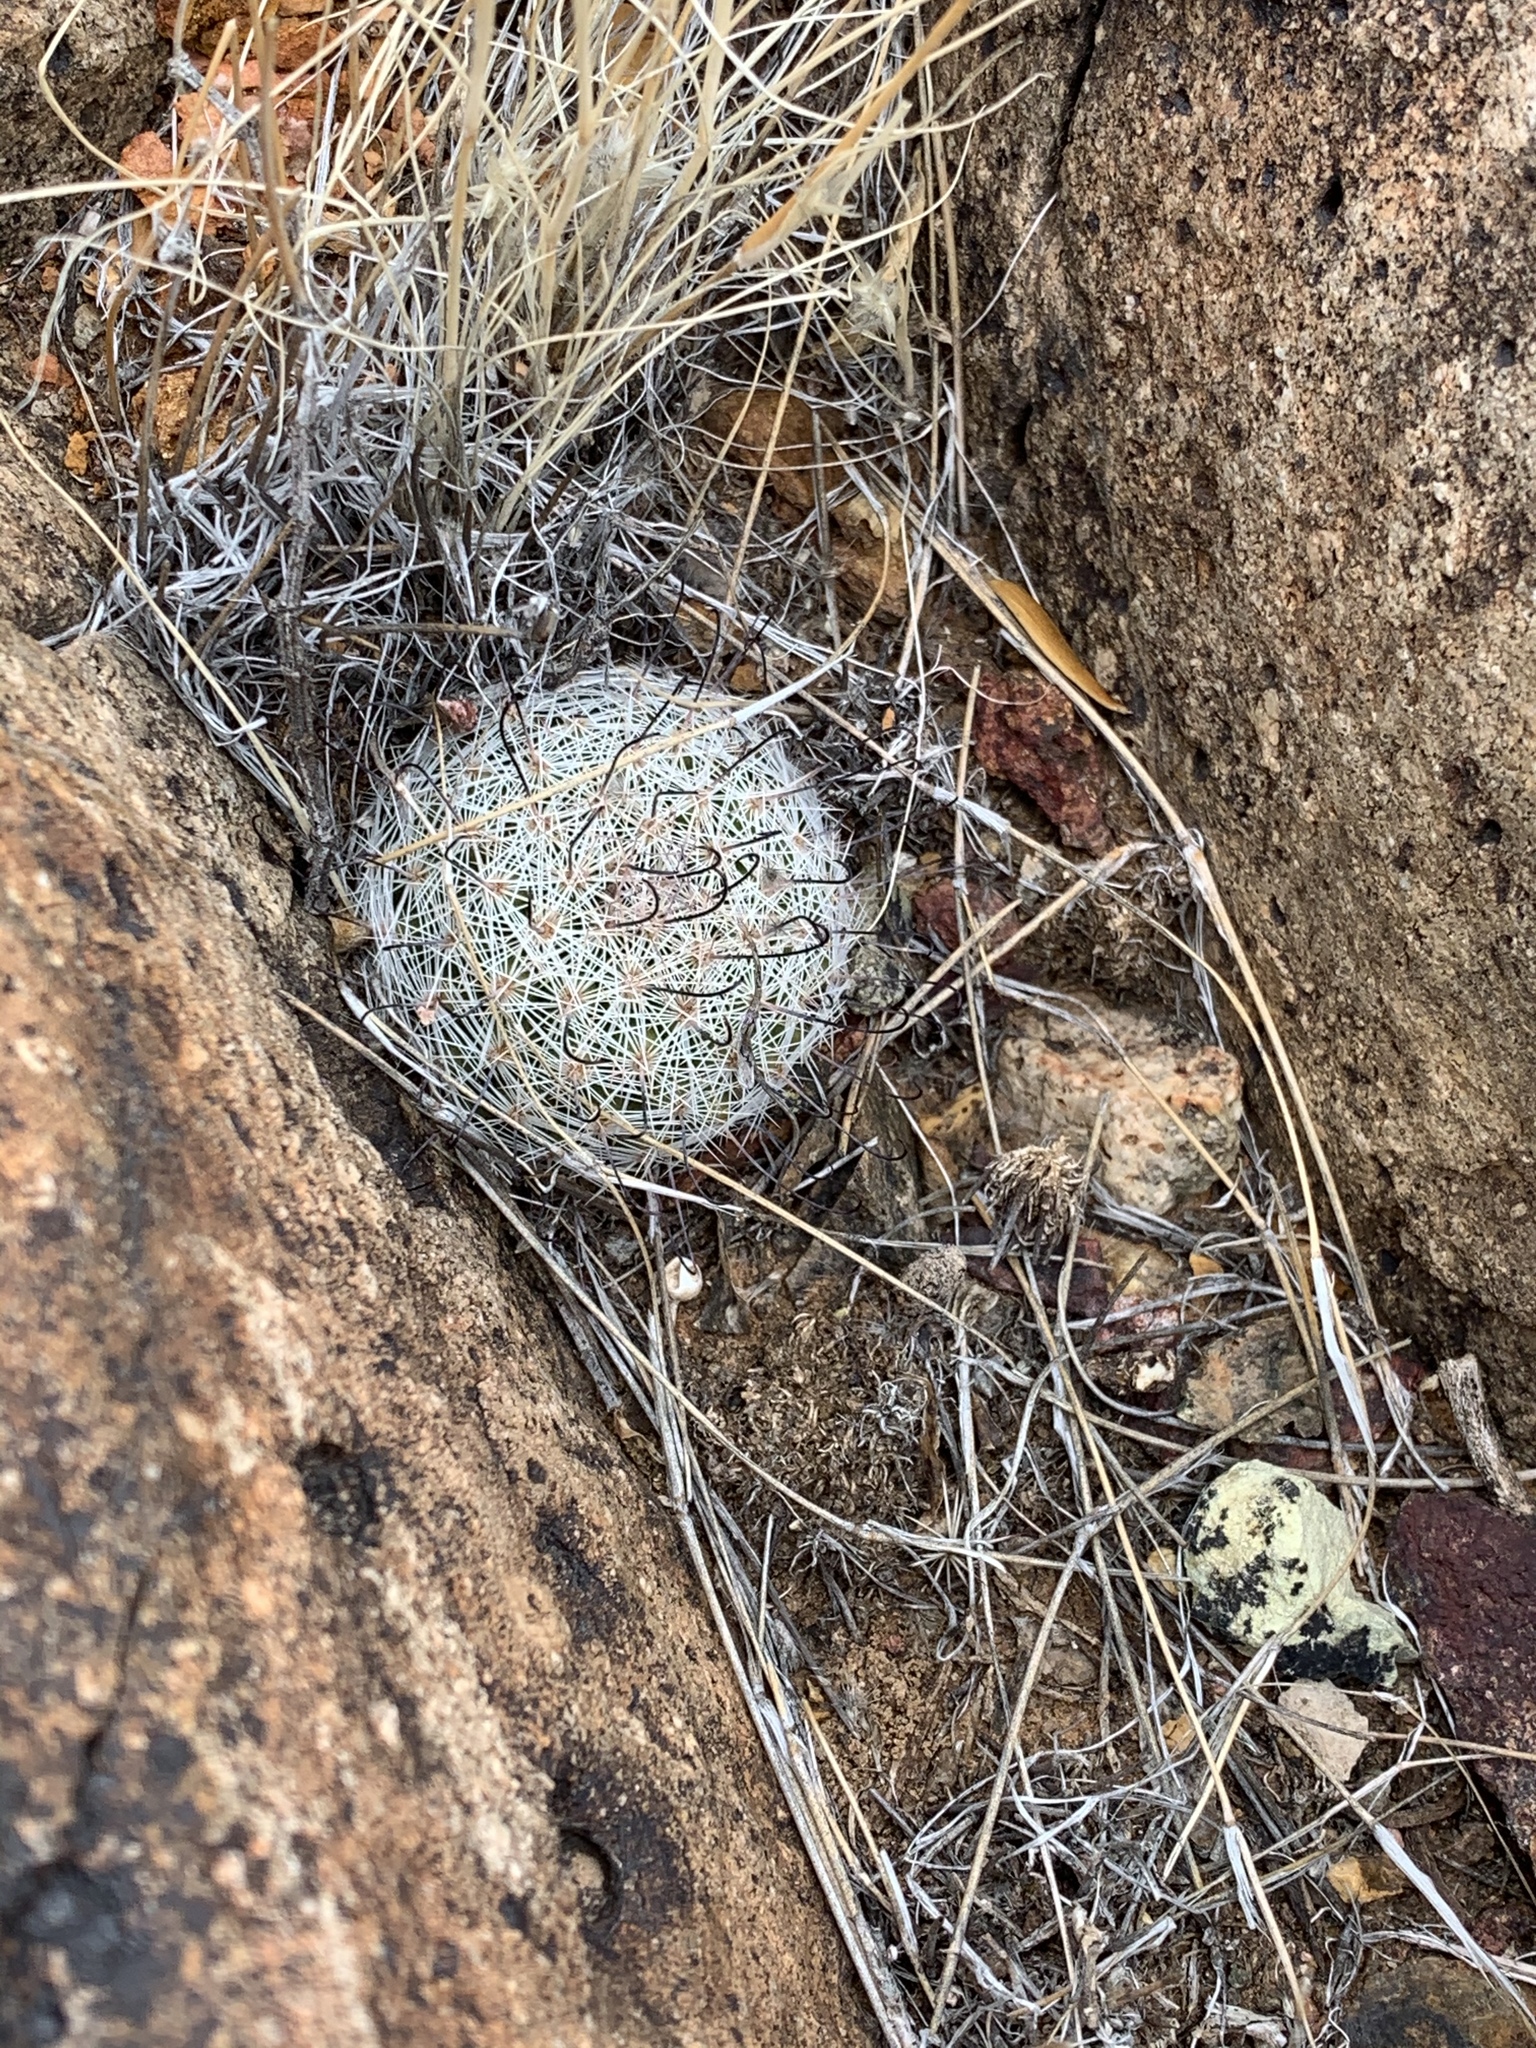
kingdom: Plantae
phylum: Tracheophyta
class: Magnoliopsida
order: Caryophyllales
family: Cactaceae
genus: Cochemiea
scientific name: Cochemiea grahamii
